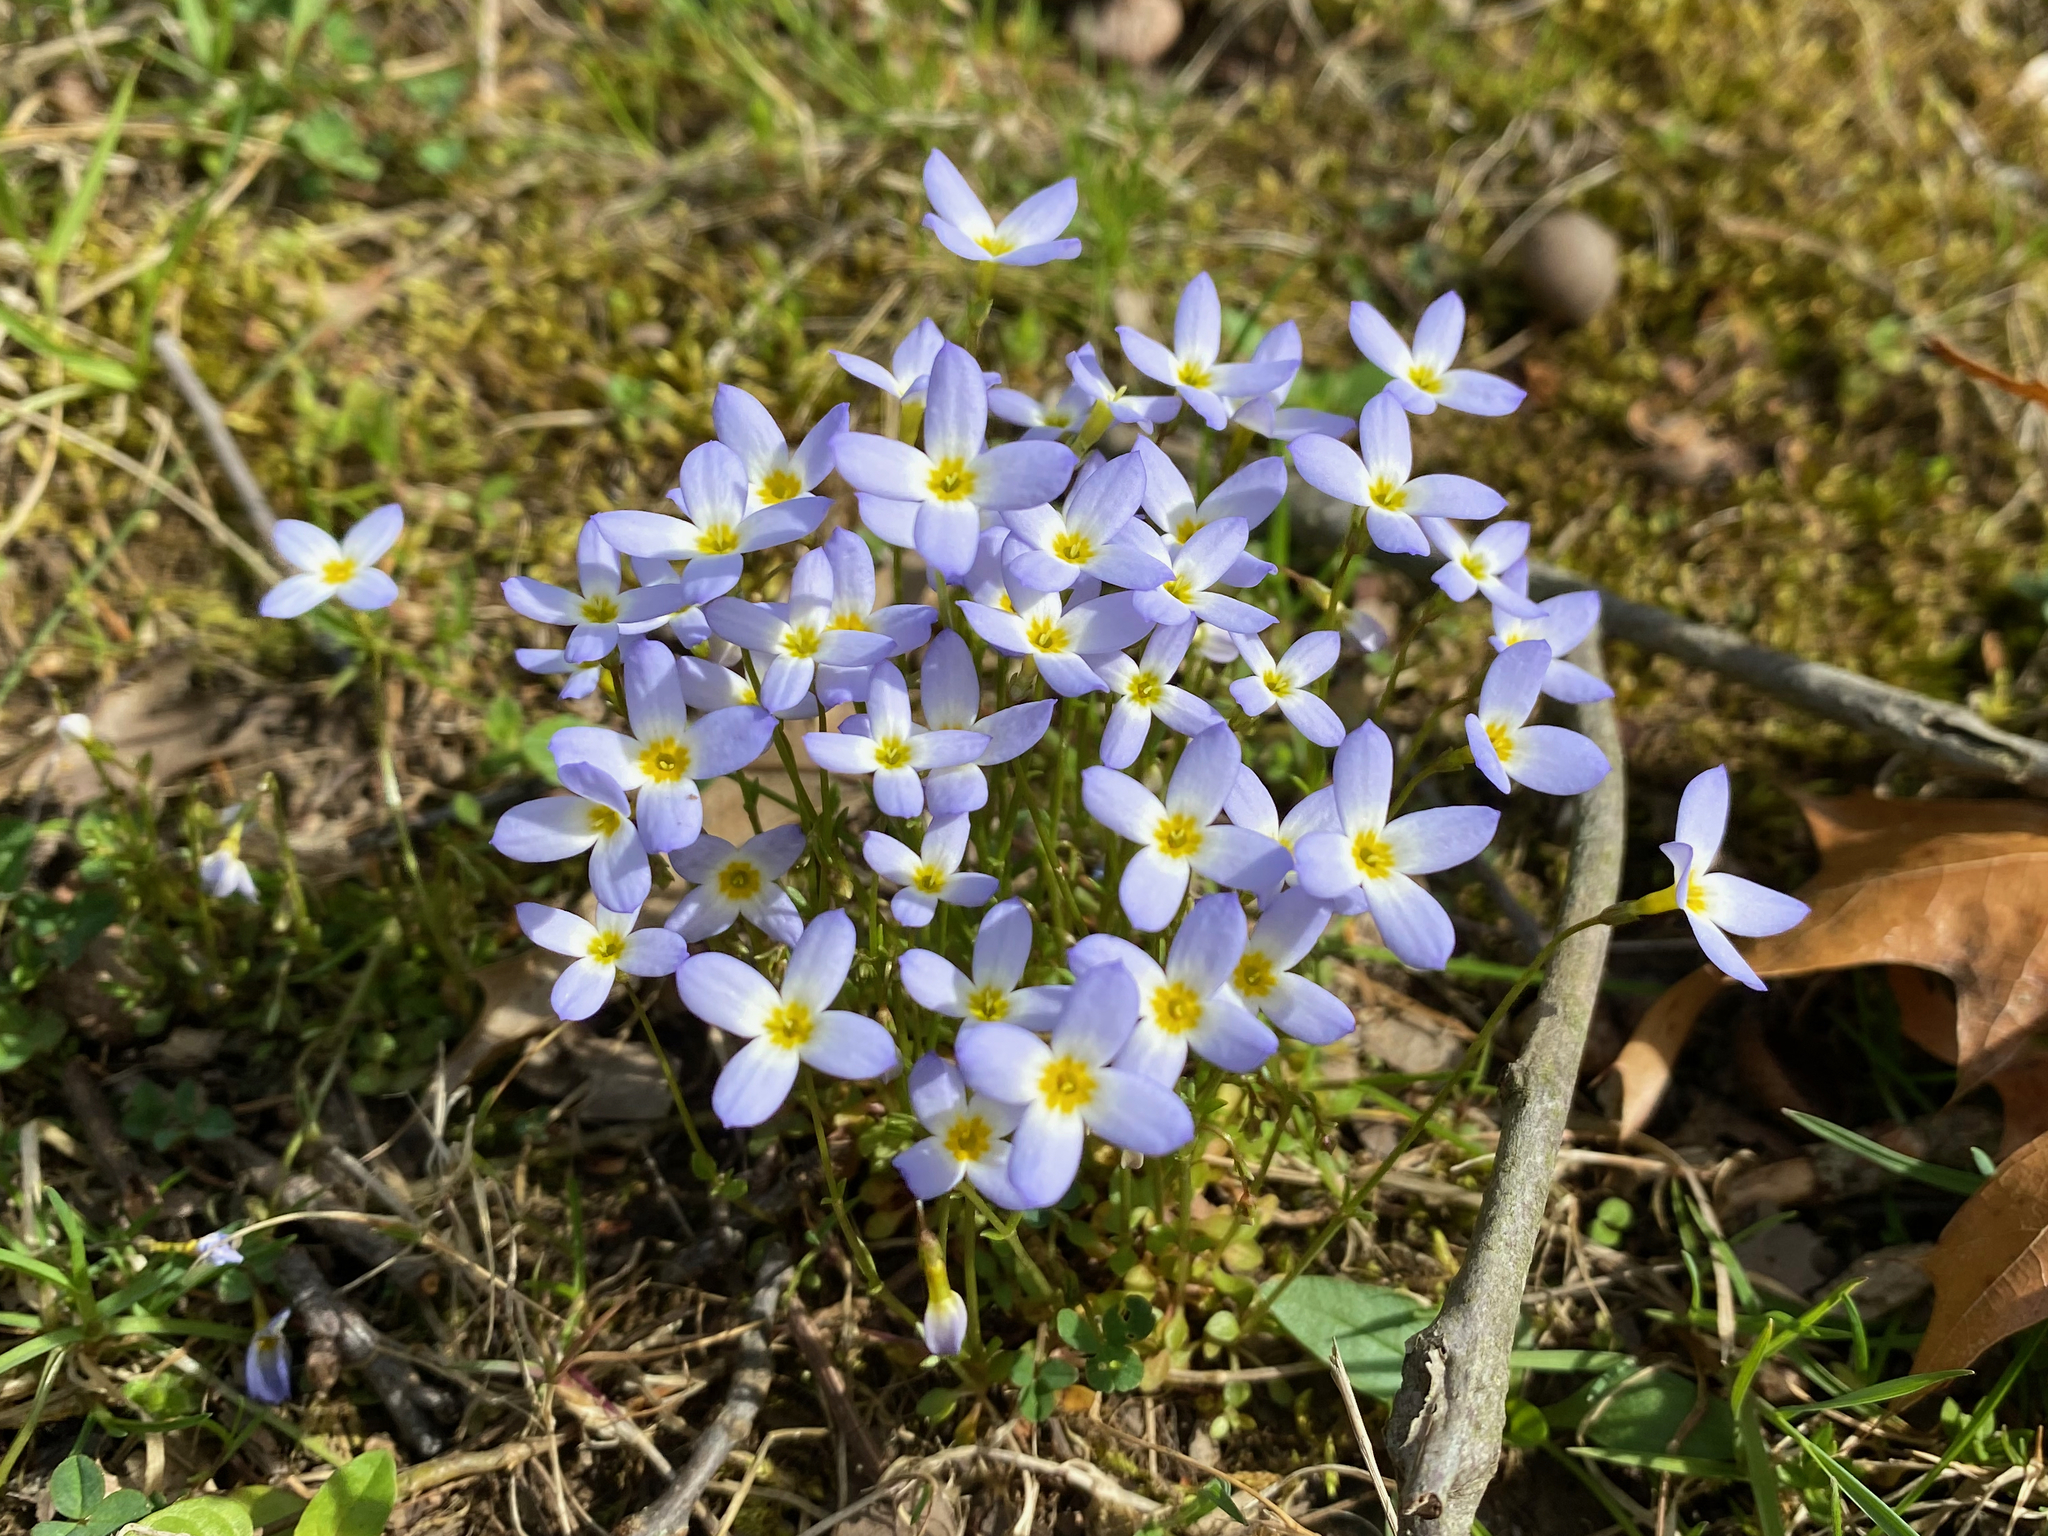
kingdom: Plantae
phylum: Tracheophyta
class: Magnoliopsida
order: Gentianales
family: Rubiaceae
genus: Houstonia
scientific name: Houstonia caerulea
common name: Bluets
